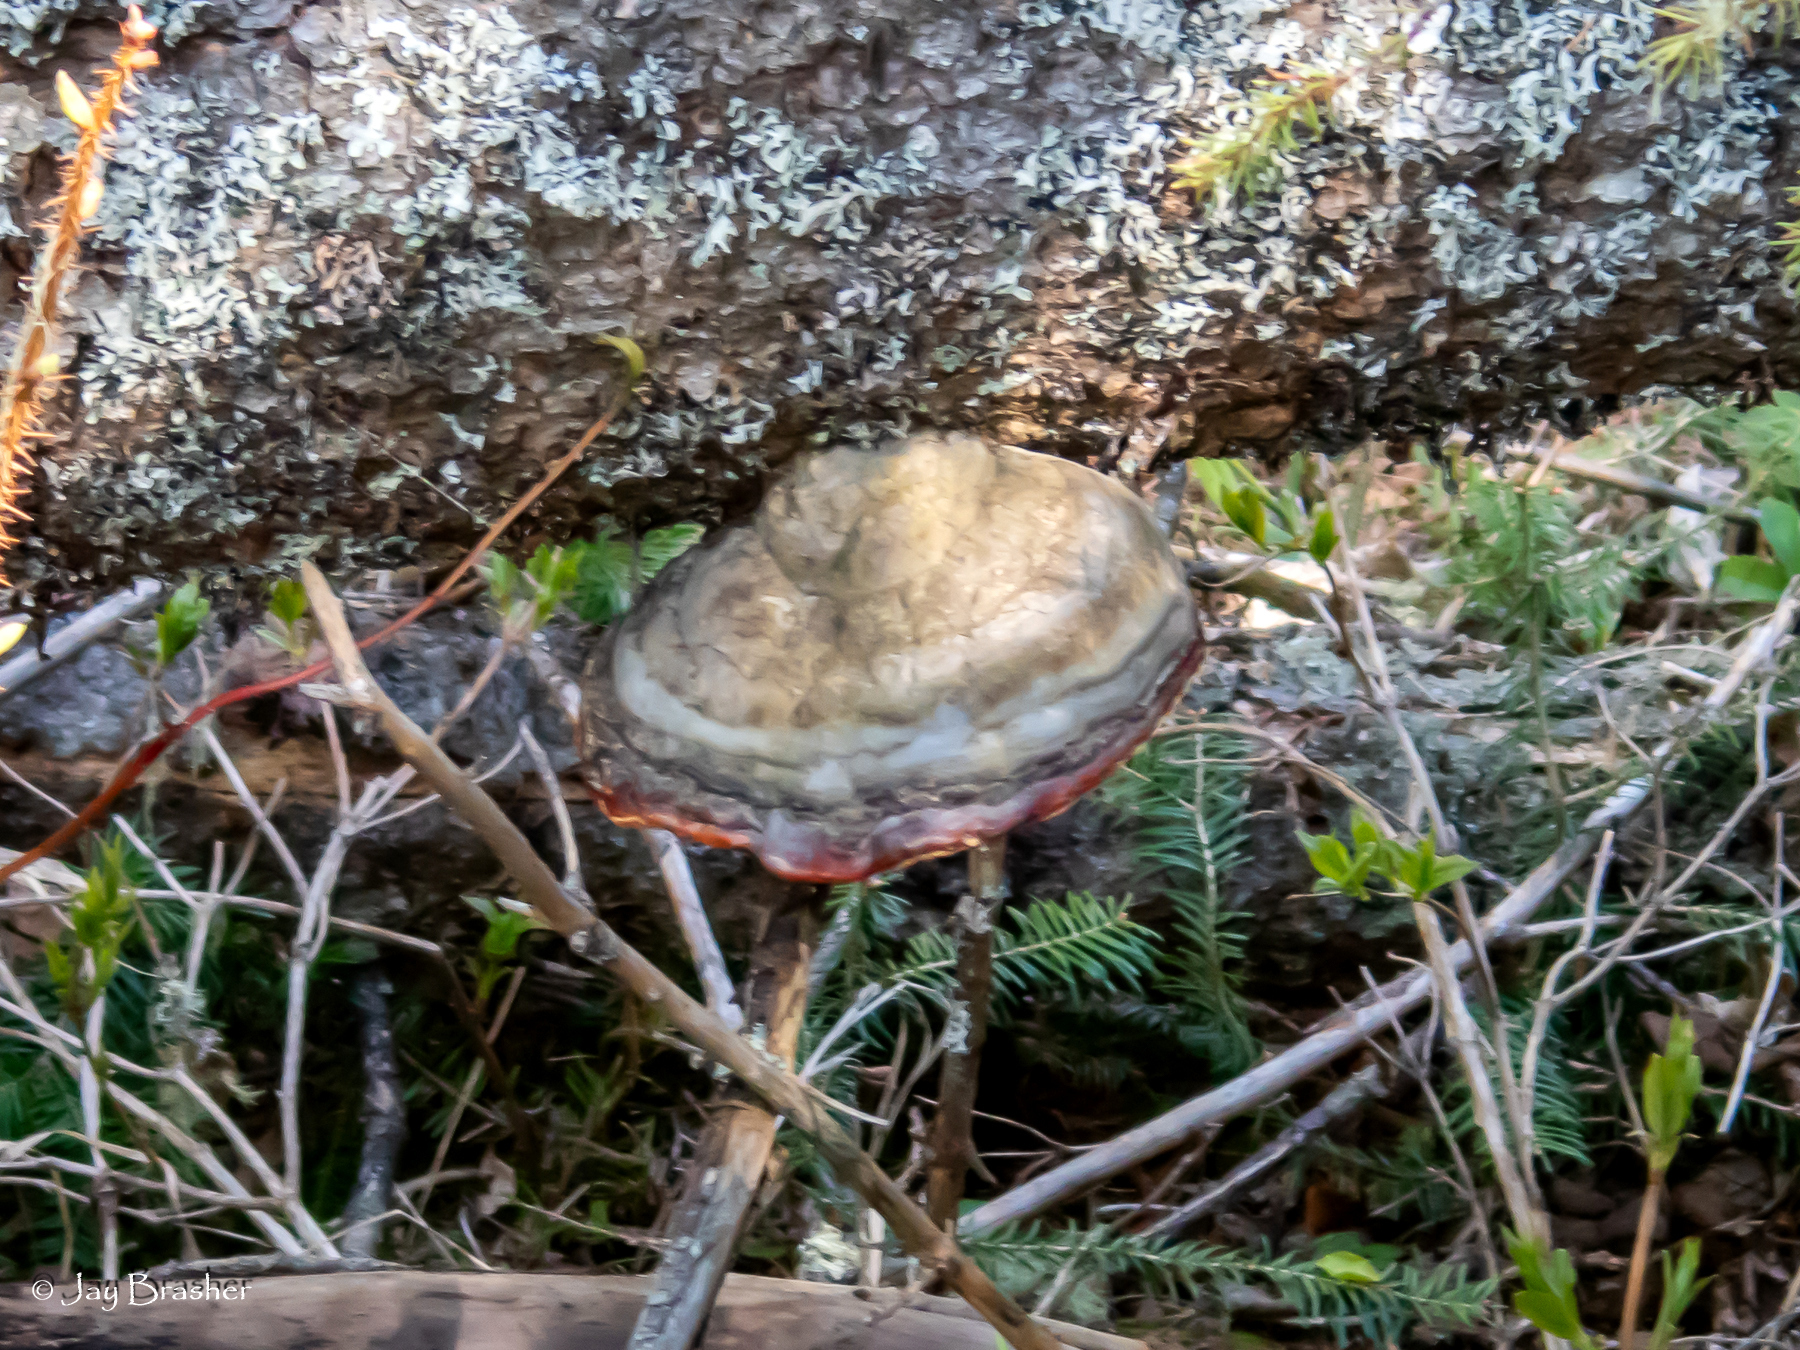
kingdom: Fungi
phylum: Basidiomycota
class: Agaricomycetes
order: Polyporales
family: Fomitopsidaceae
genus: Fomitopsis
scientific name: Fomitopsis mounceae
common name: Northern red belt
